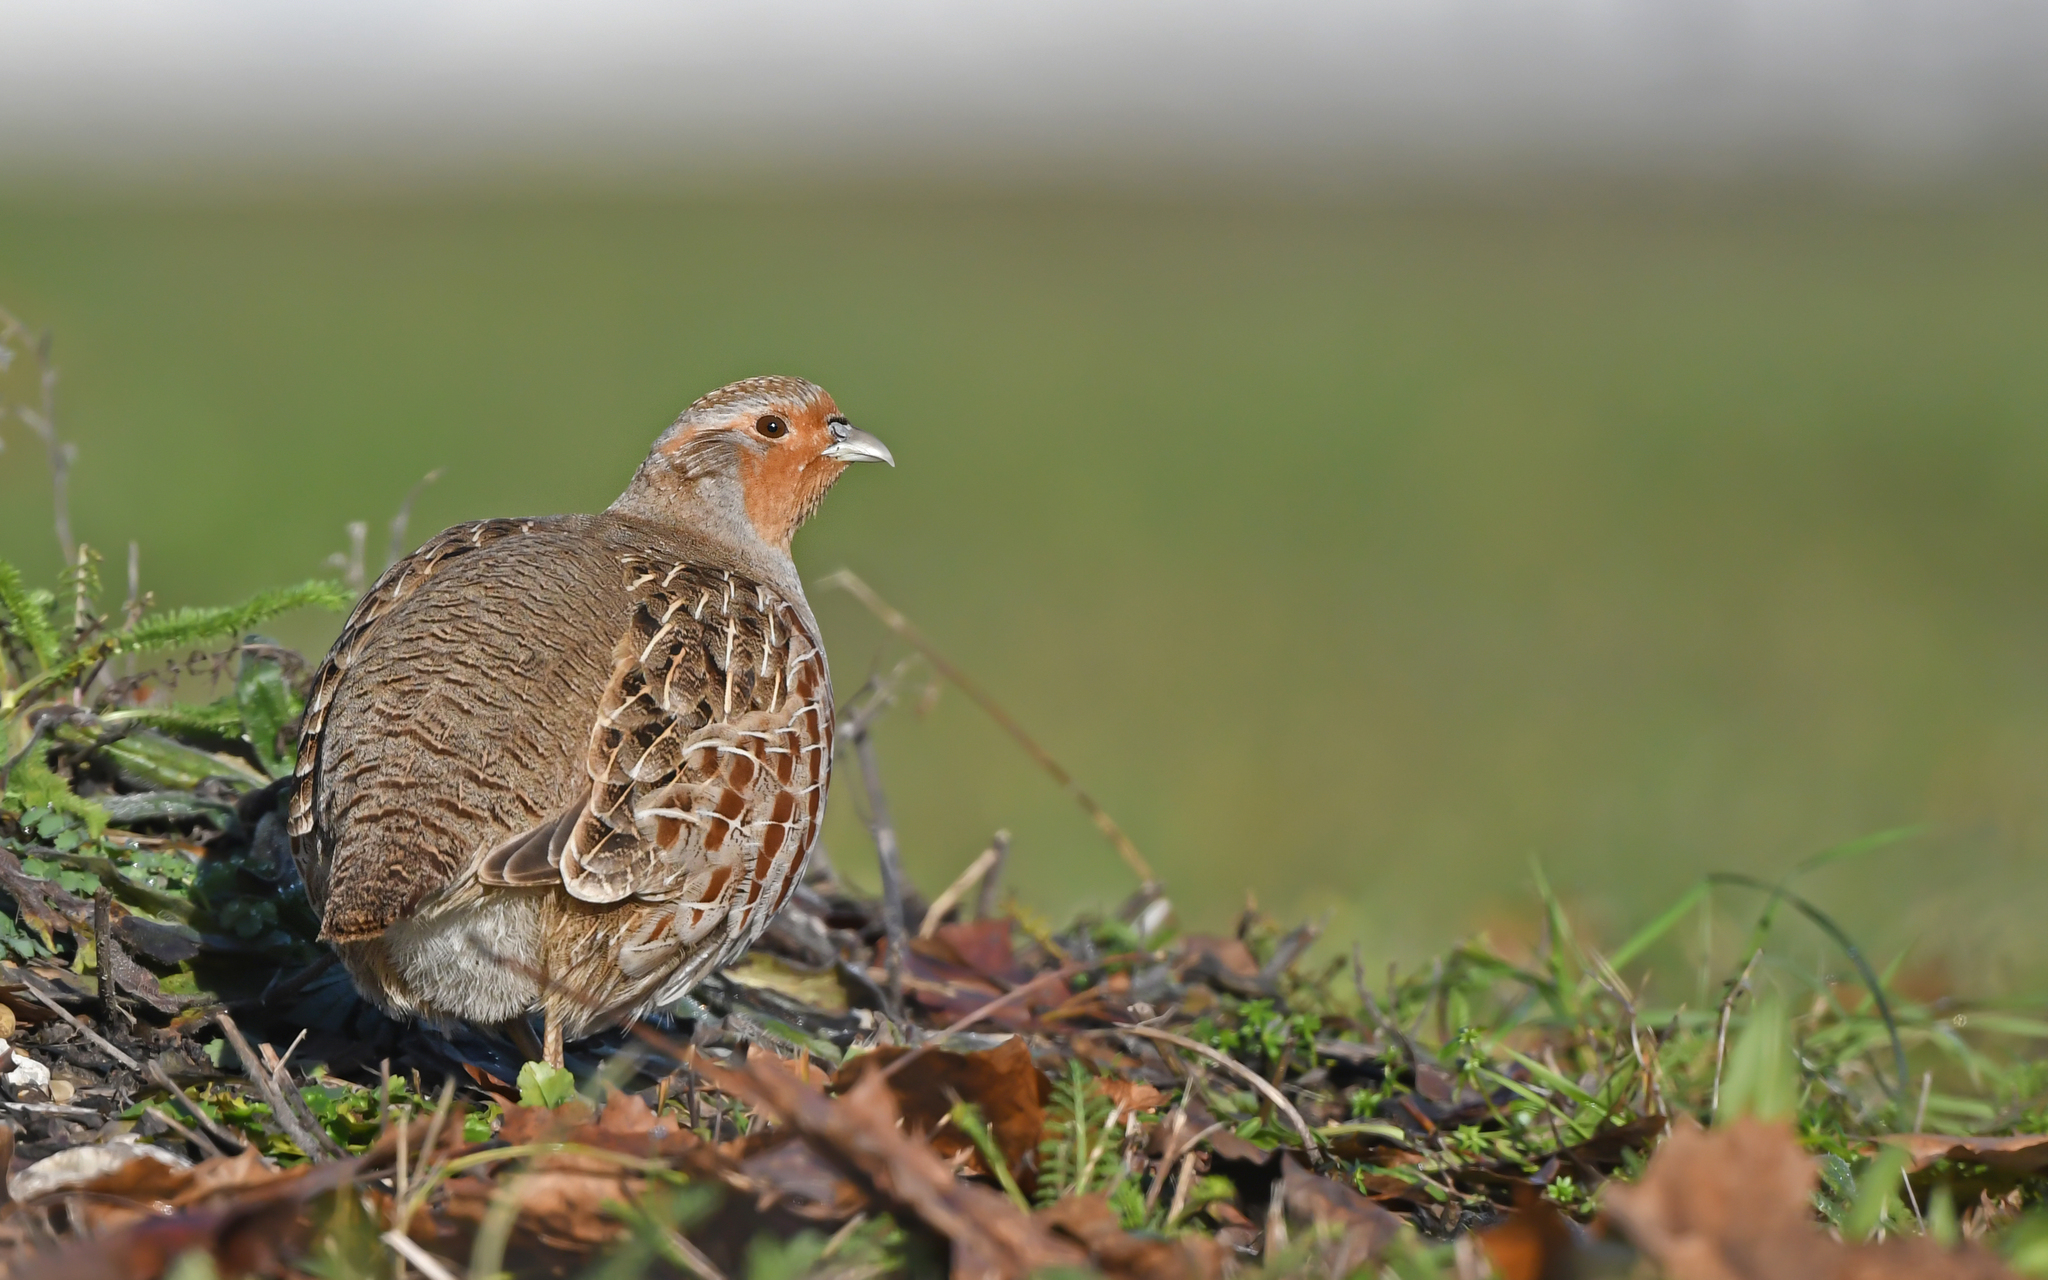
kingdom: Animalia
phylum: Chordata
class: Aves
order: Galliformes
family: Phasianidae
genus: Perdix
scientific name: Perdix perdix
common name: Grey partridge
